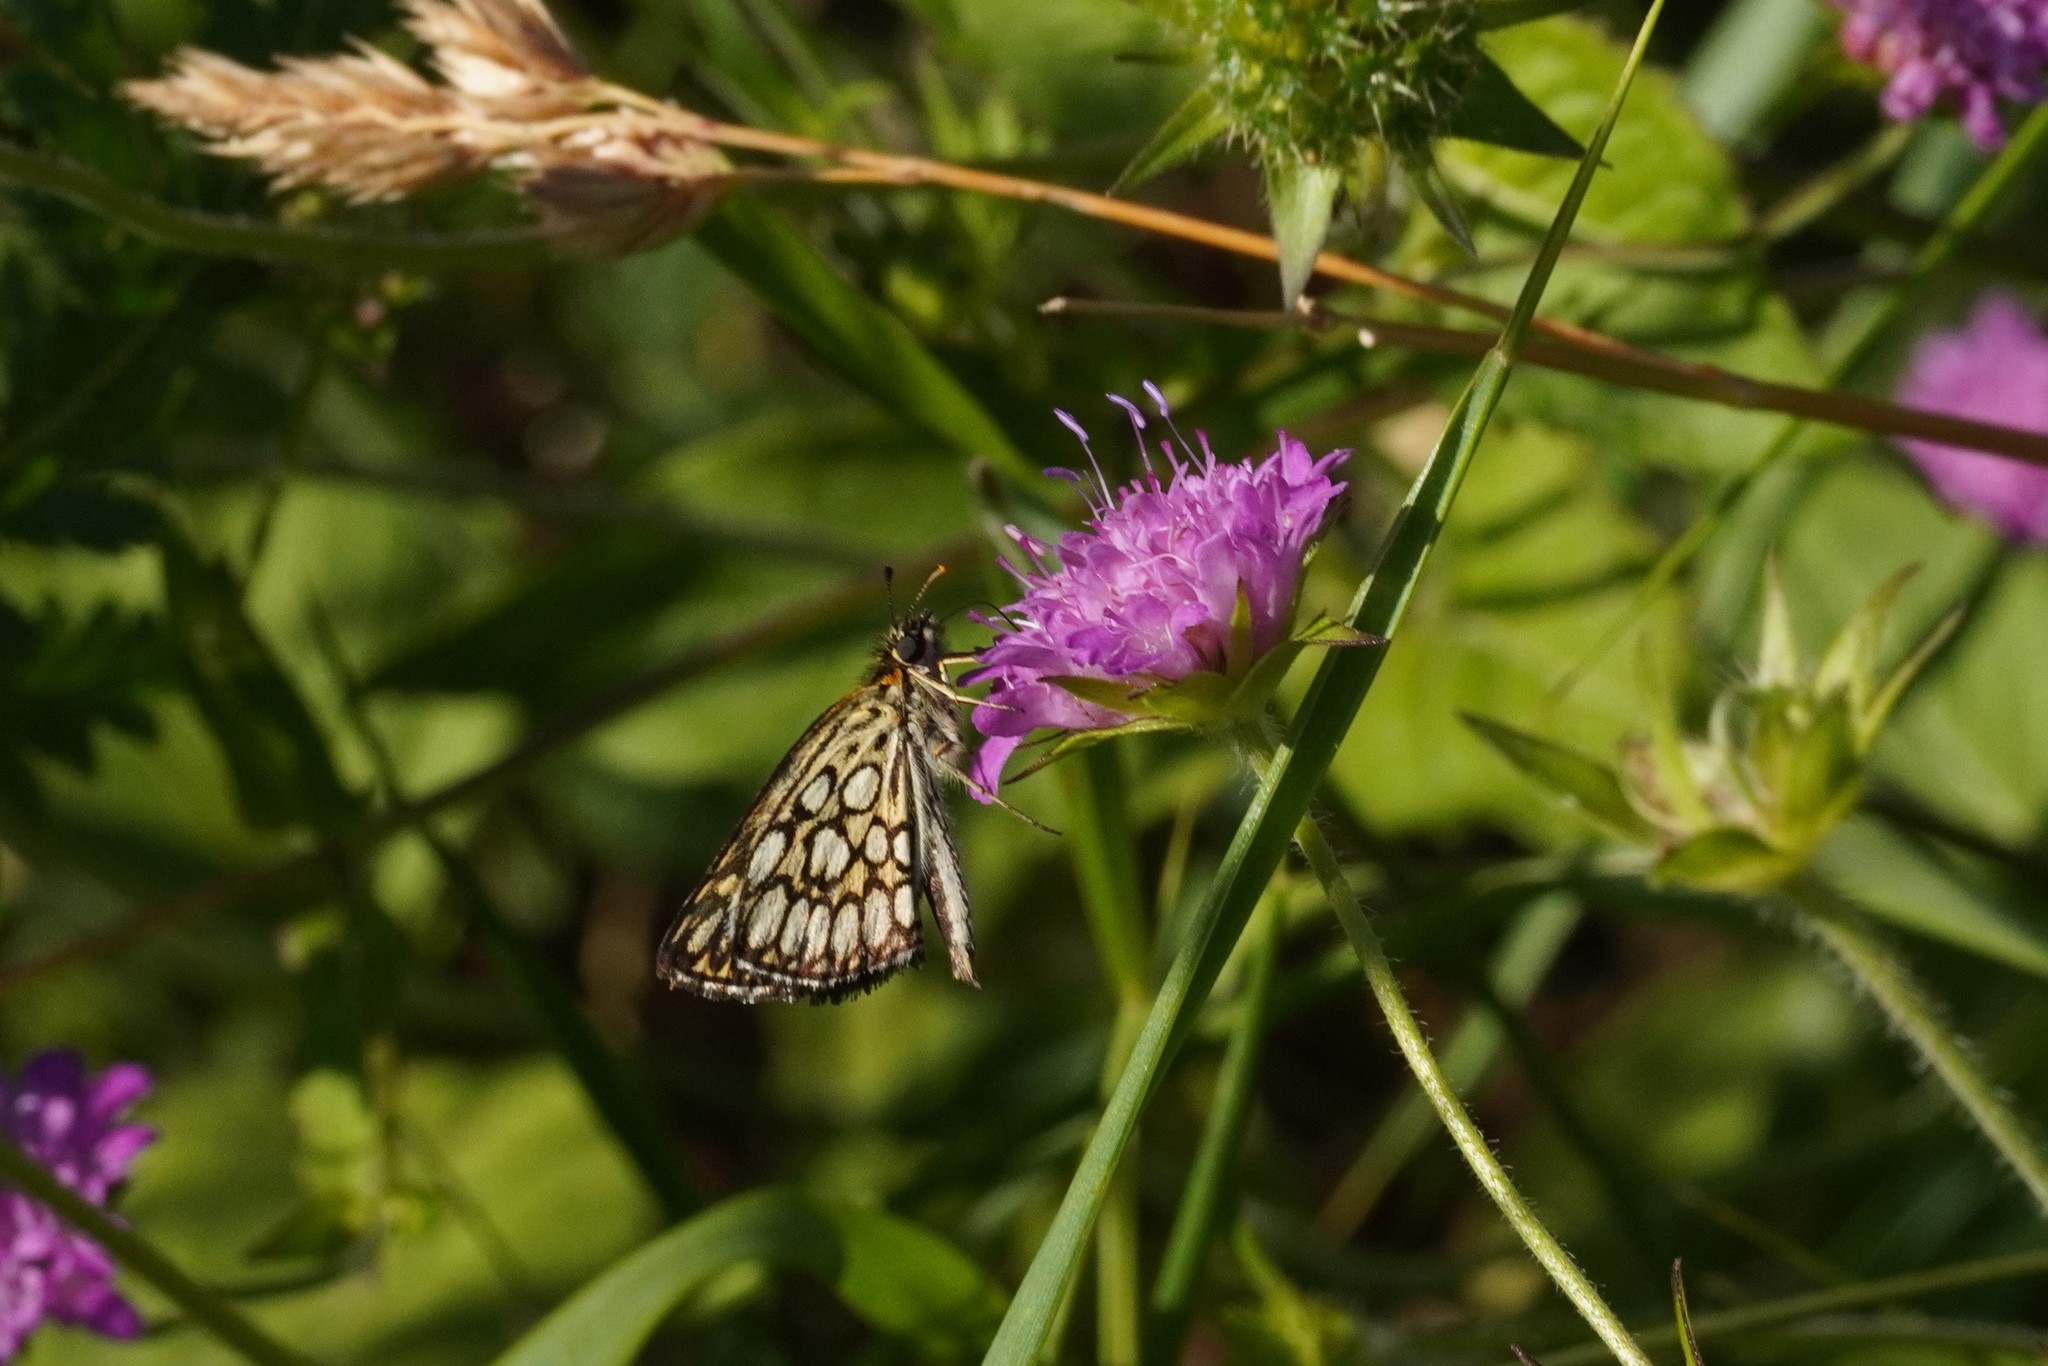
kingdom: Animalia
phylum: Arthropoda
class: Insecta
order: Lepidoptera
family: Hesperiidae
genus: Heteropterus
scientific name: Heteropterus morpheus
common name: Large chequered skipper
